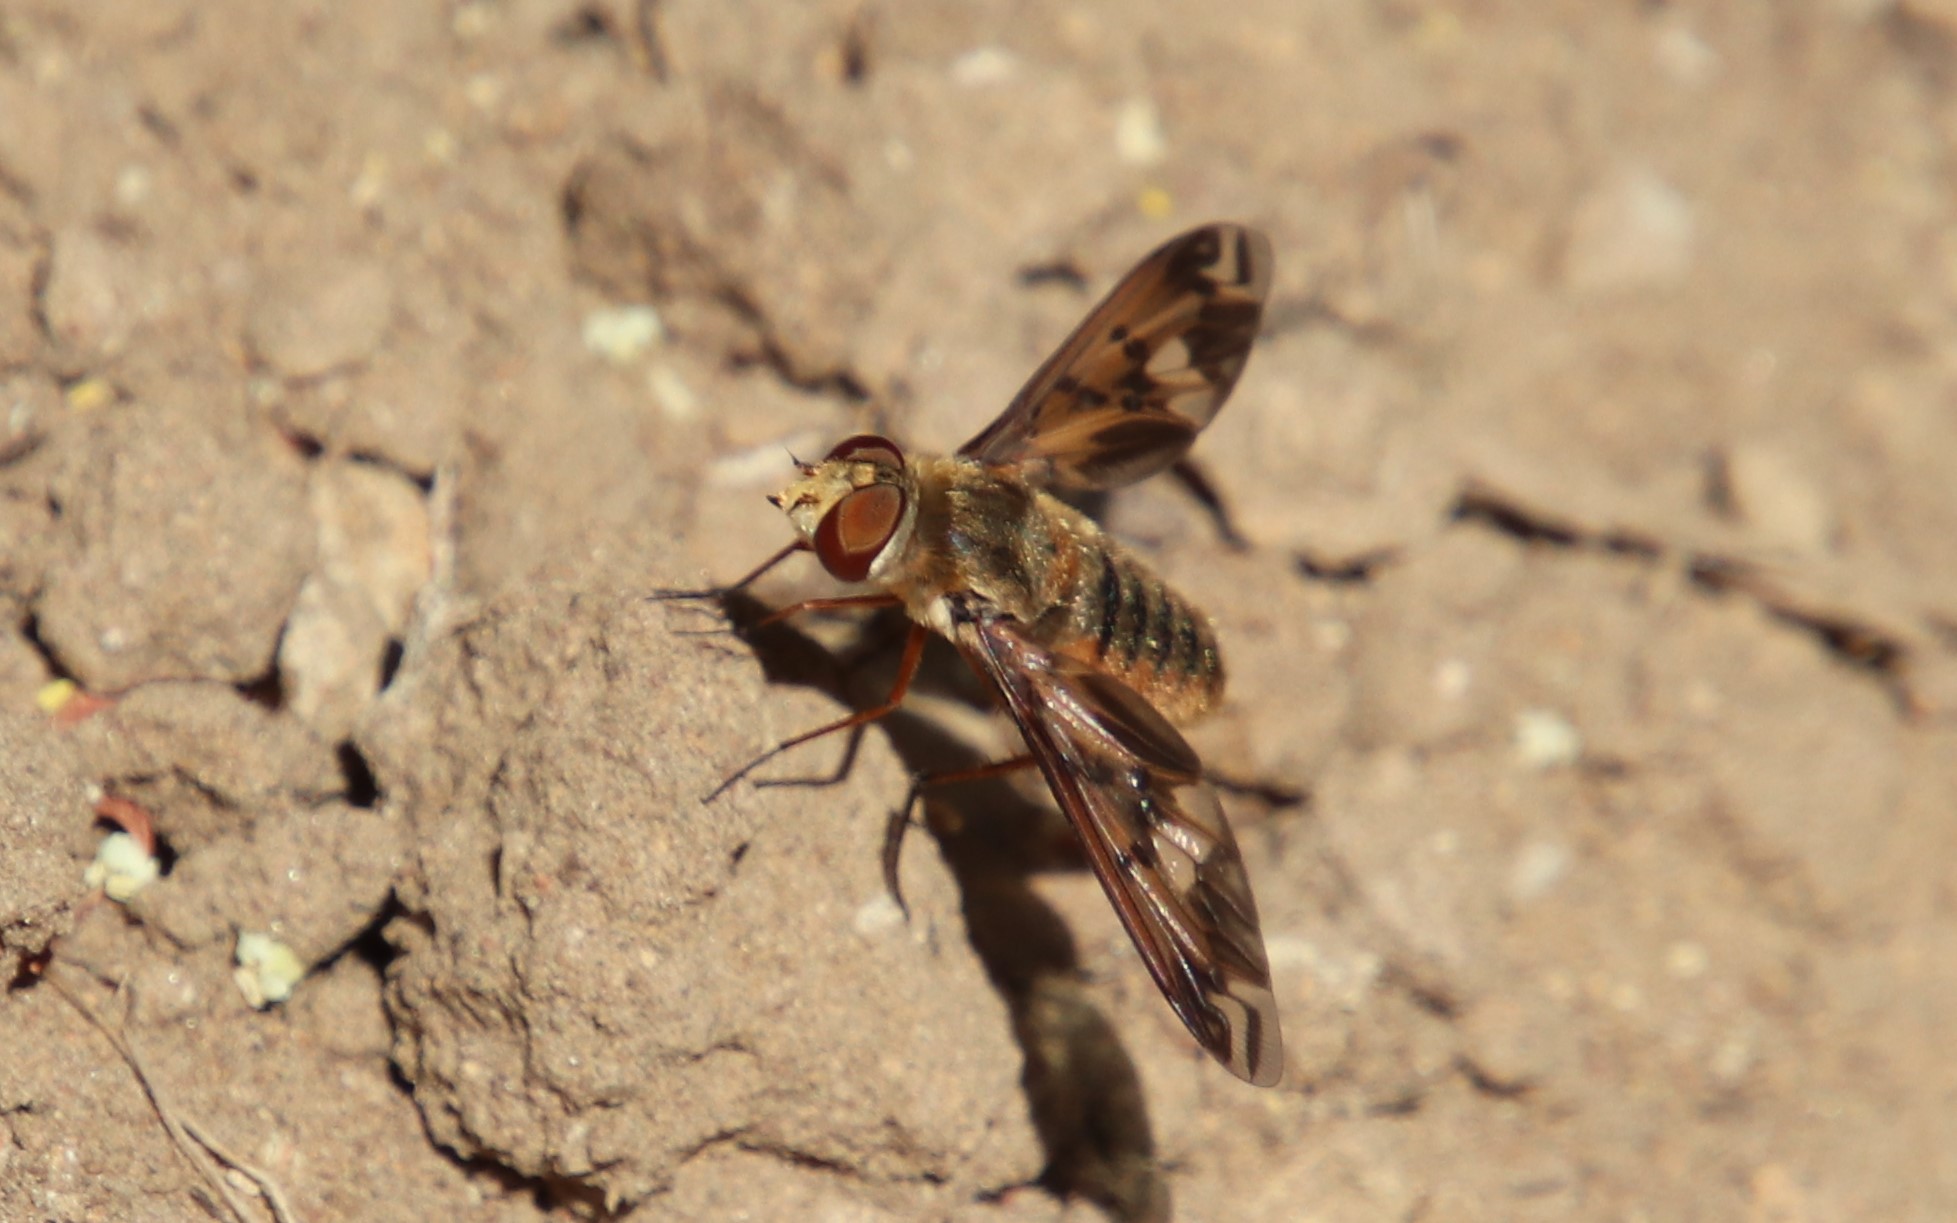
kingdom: Animalia
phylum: Arthropoda
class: Insecta
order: Diptera
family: Bombyliidae
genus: Poecilanthrax
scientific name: Poecilanthrax arethusa
